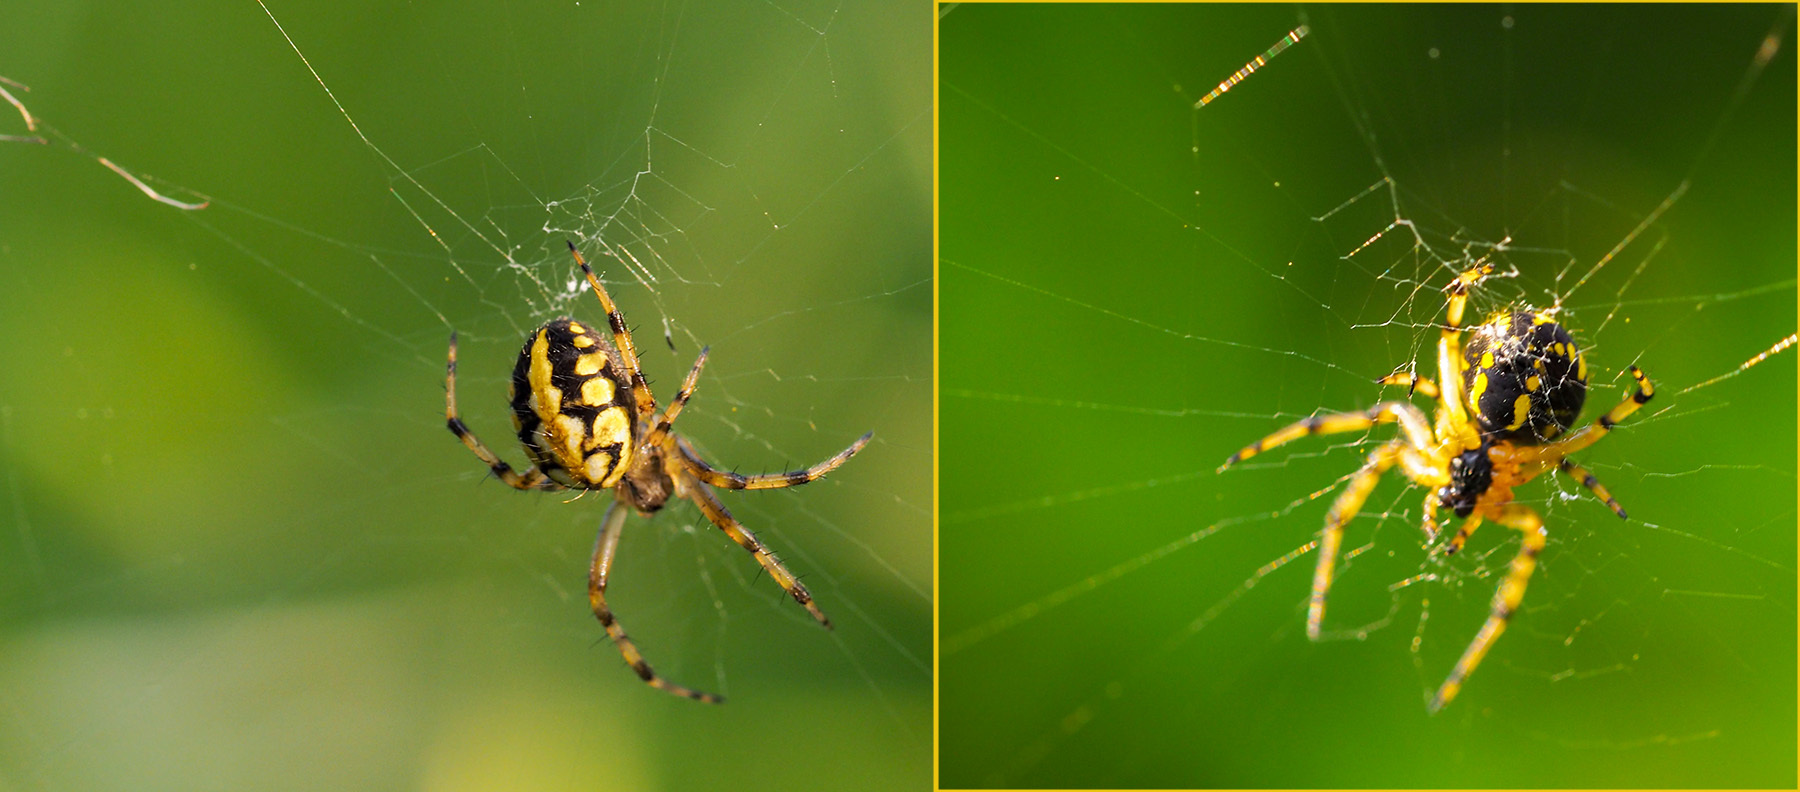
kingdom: Animalia
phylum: Arthropoda
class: Arachnida
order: Araneae
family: Araneidae
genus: Neoscona
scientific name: Neoscona adianta
